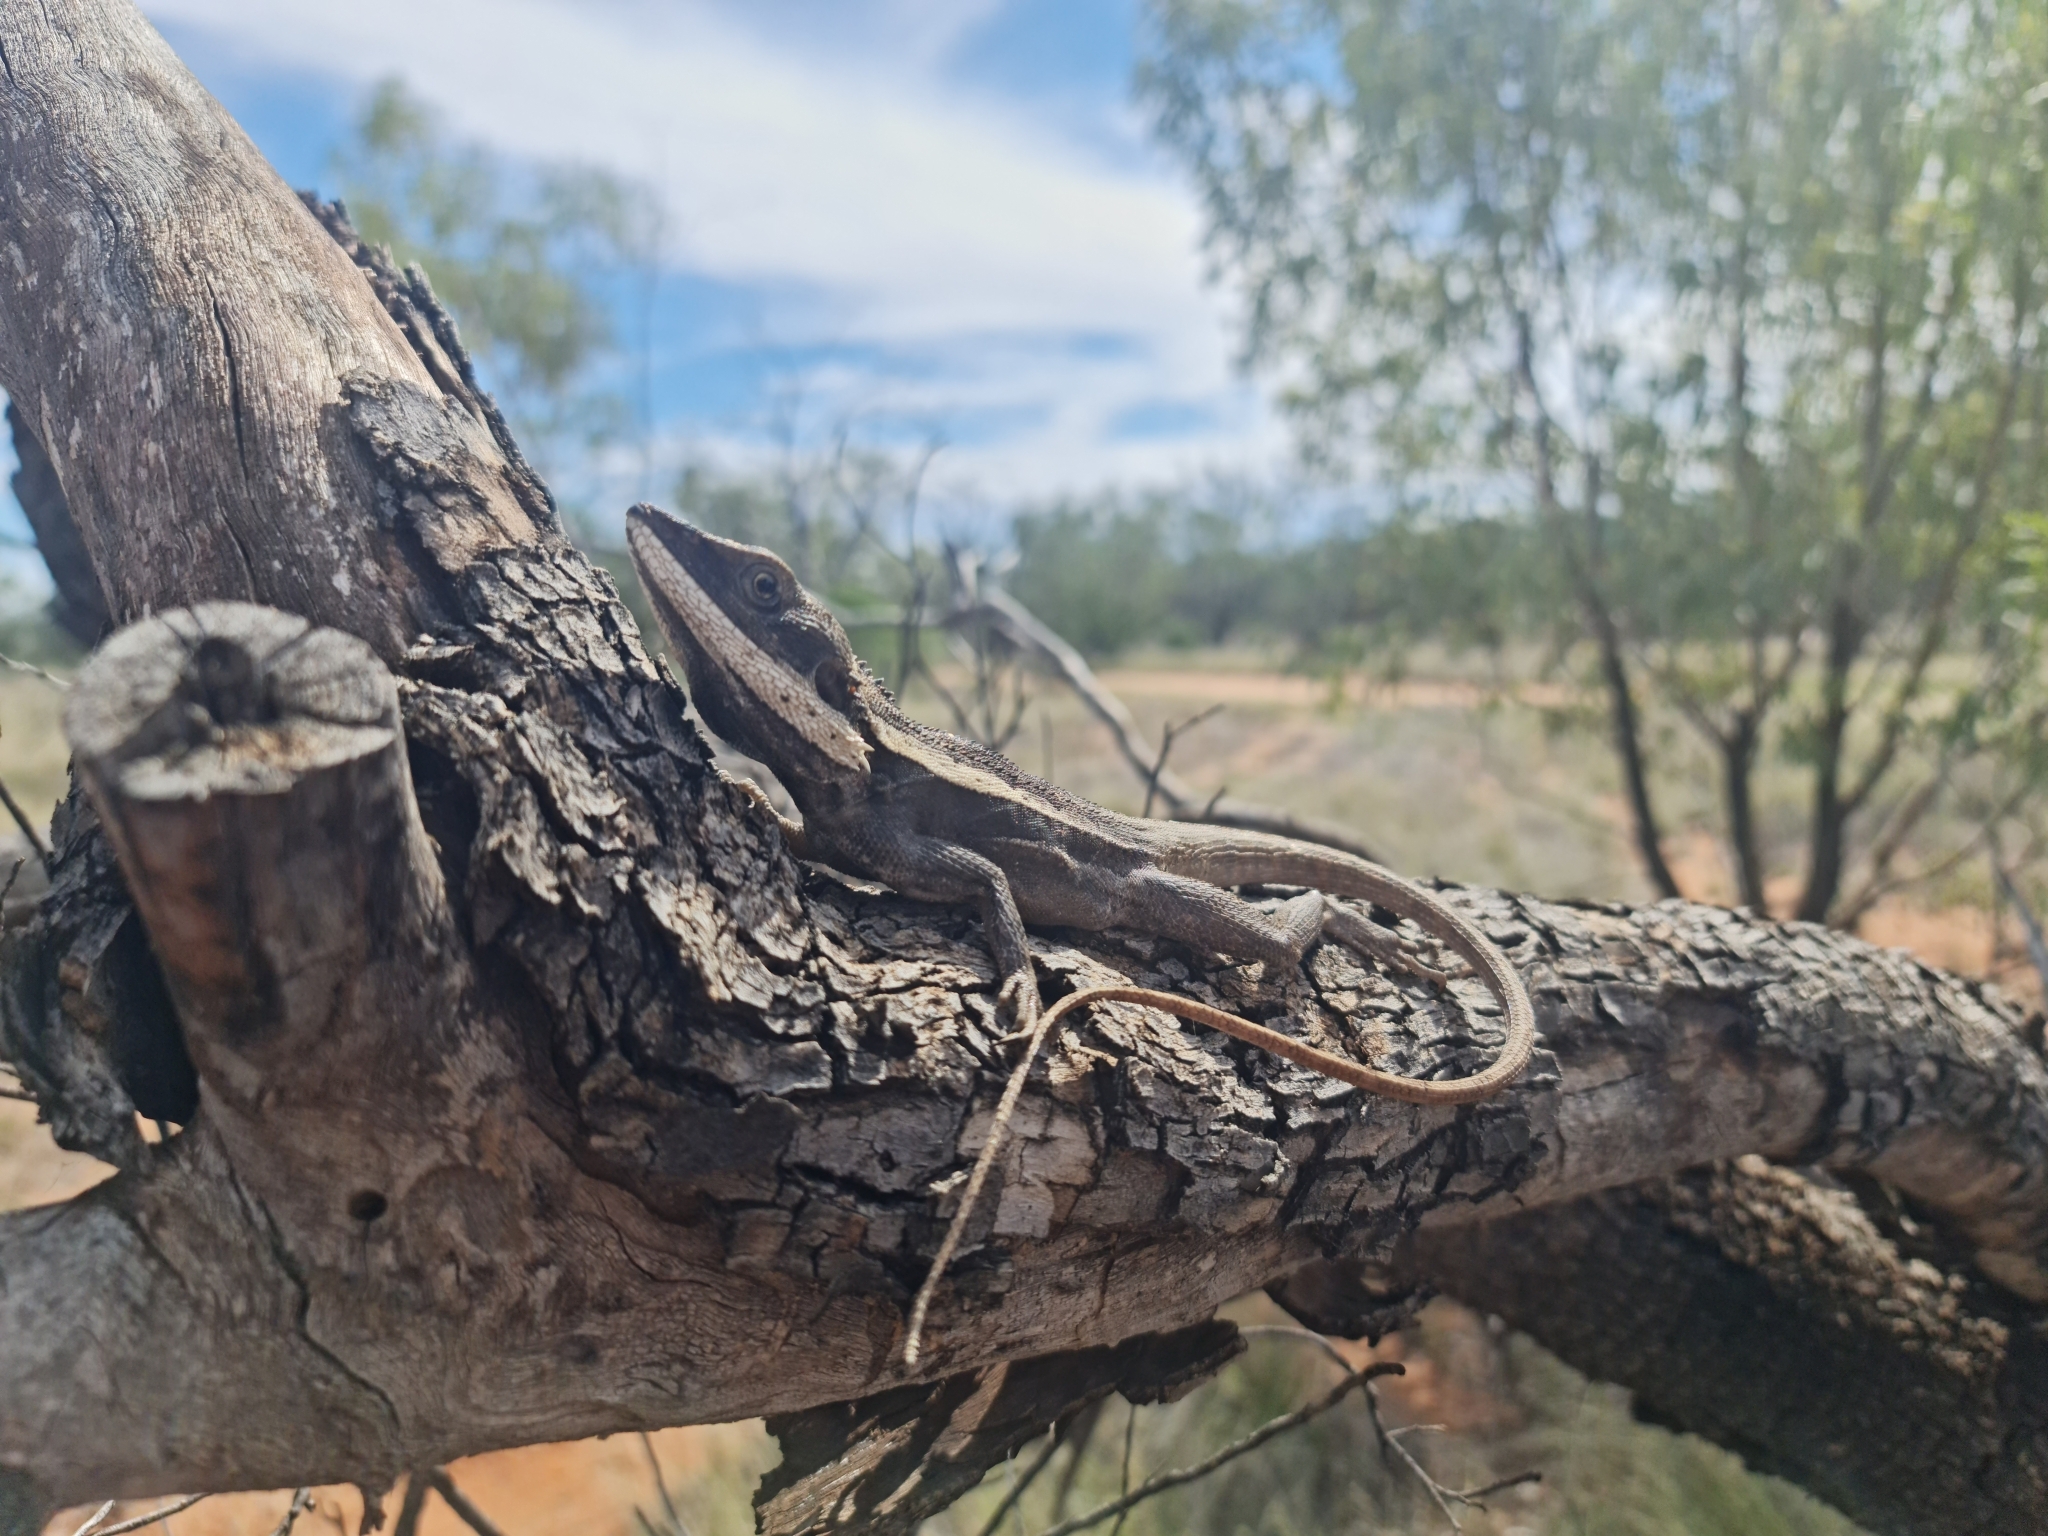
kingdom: Animalia
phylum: Chordata
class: Squamata
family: Agamidae
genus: Amphibolurus
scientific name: Amphibolurus burnsi
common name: Burn's dragon
